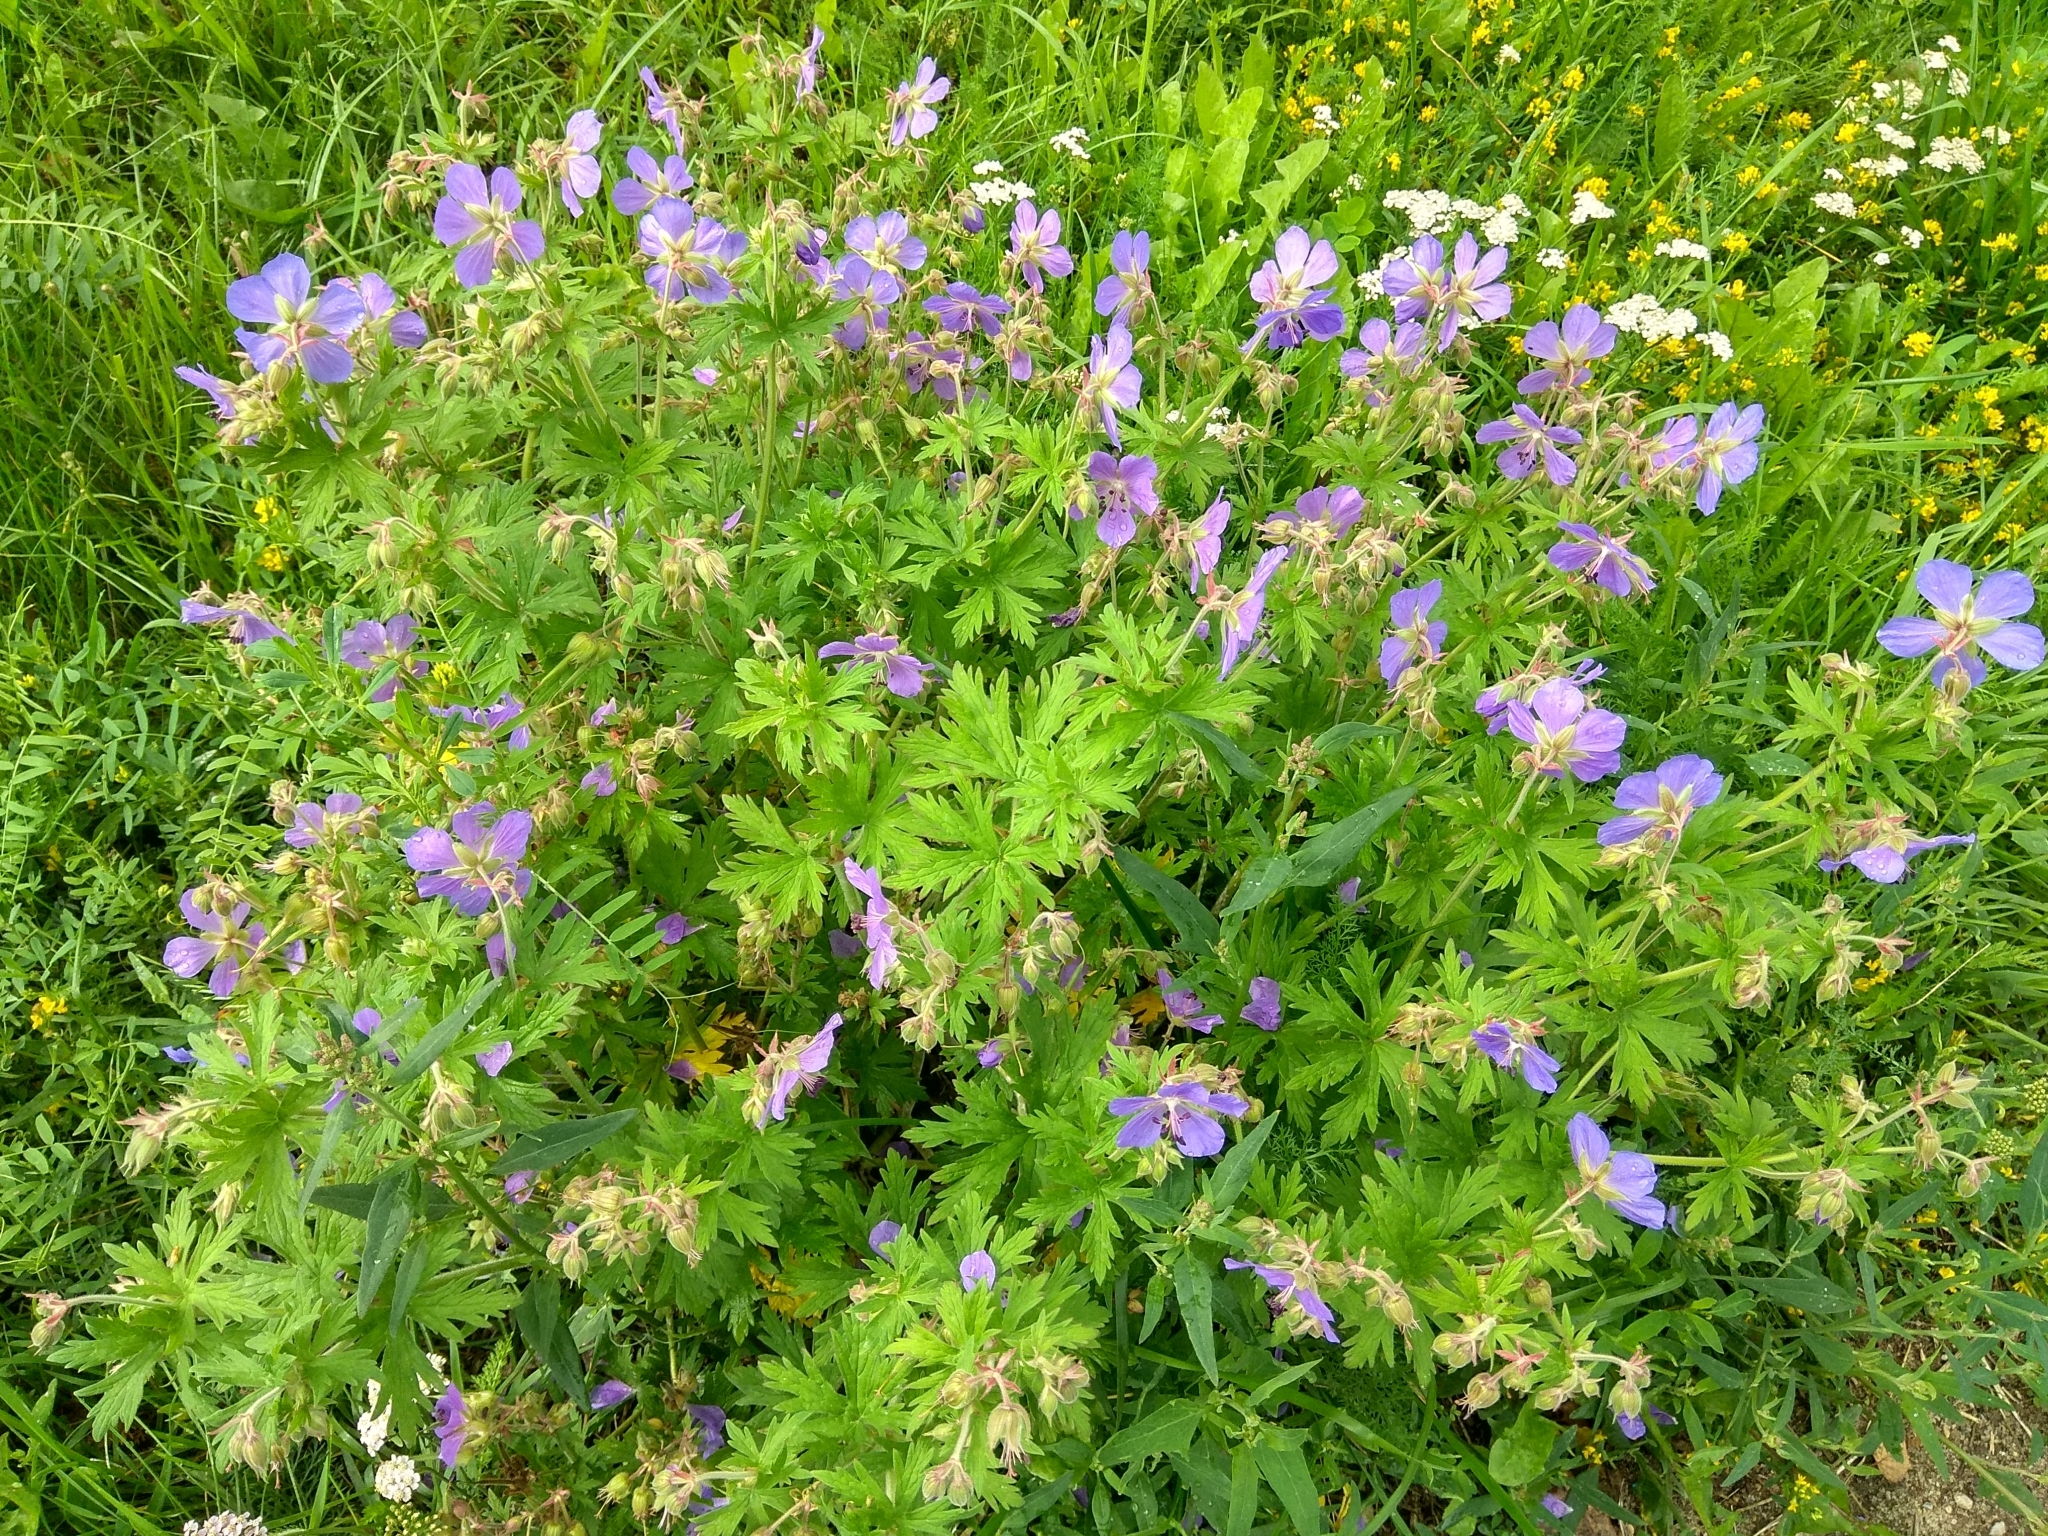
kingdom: Plantae
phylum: Tracheophyta
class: Magnoliopsida
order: Geraniales
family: Geraniaceae
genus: Geranium
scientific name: Geranium pratense
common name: Meadow crane's-bill
